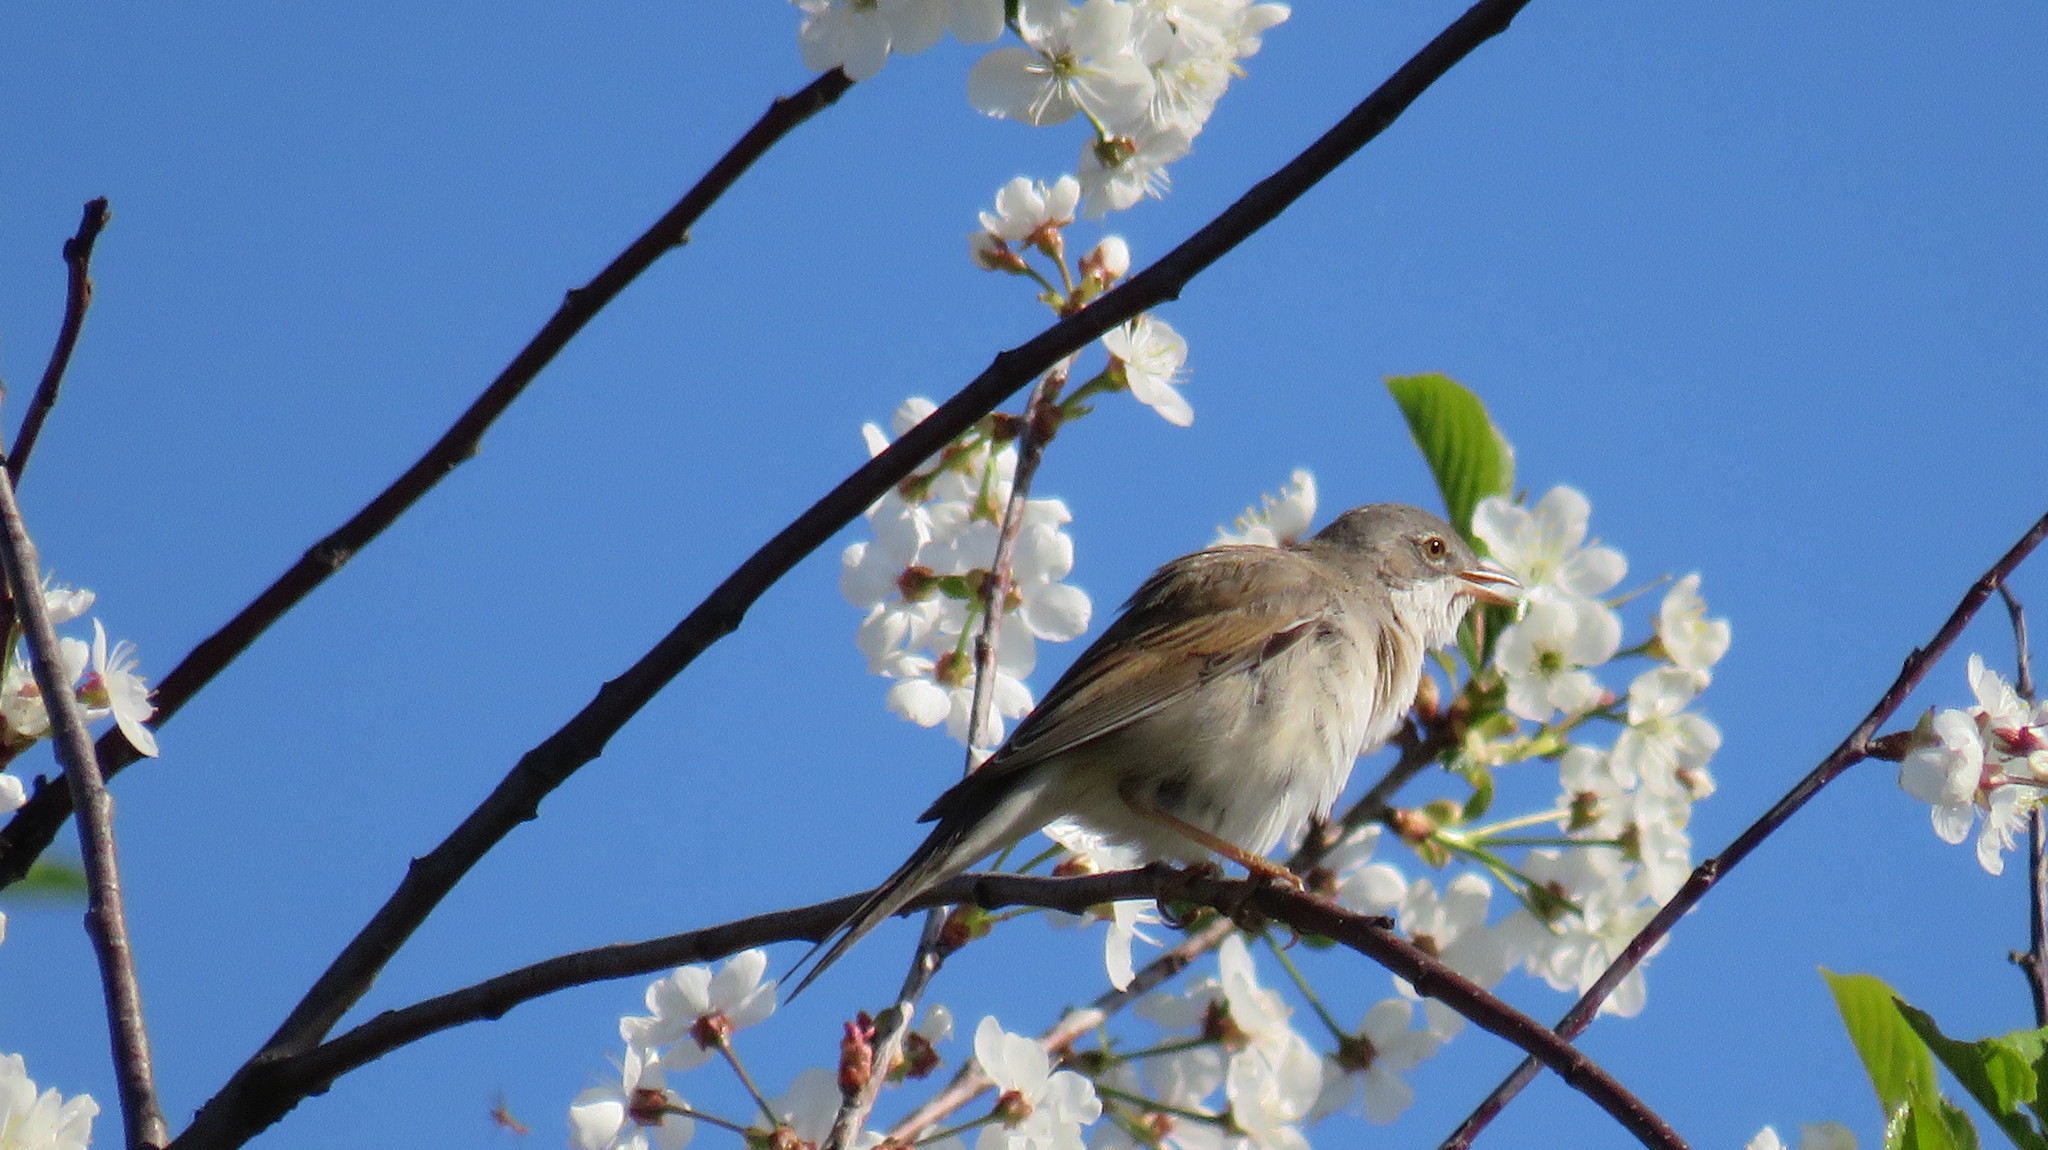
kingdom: Animalia
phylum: Chordata
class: Aves
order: Passeriformes
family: Sylviidae
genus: Sylvia
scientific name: Sylvia communis
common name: Common whitethroat
